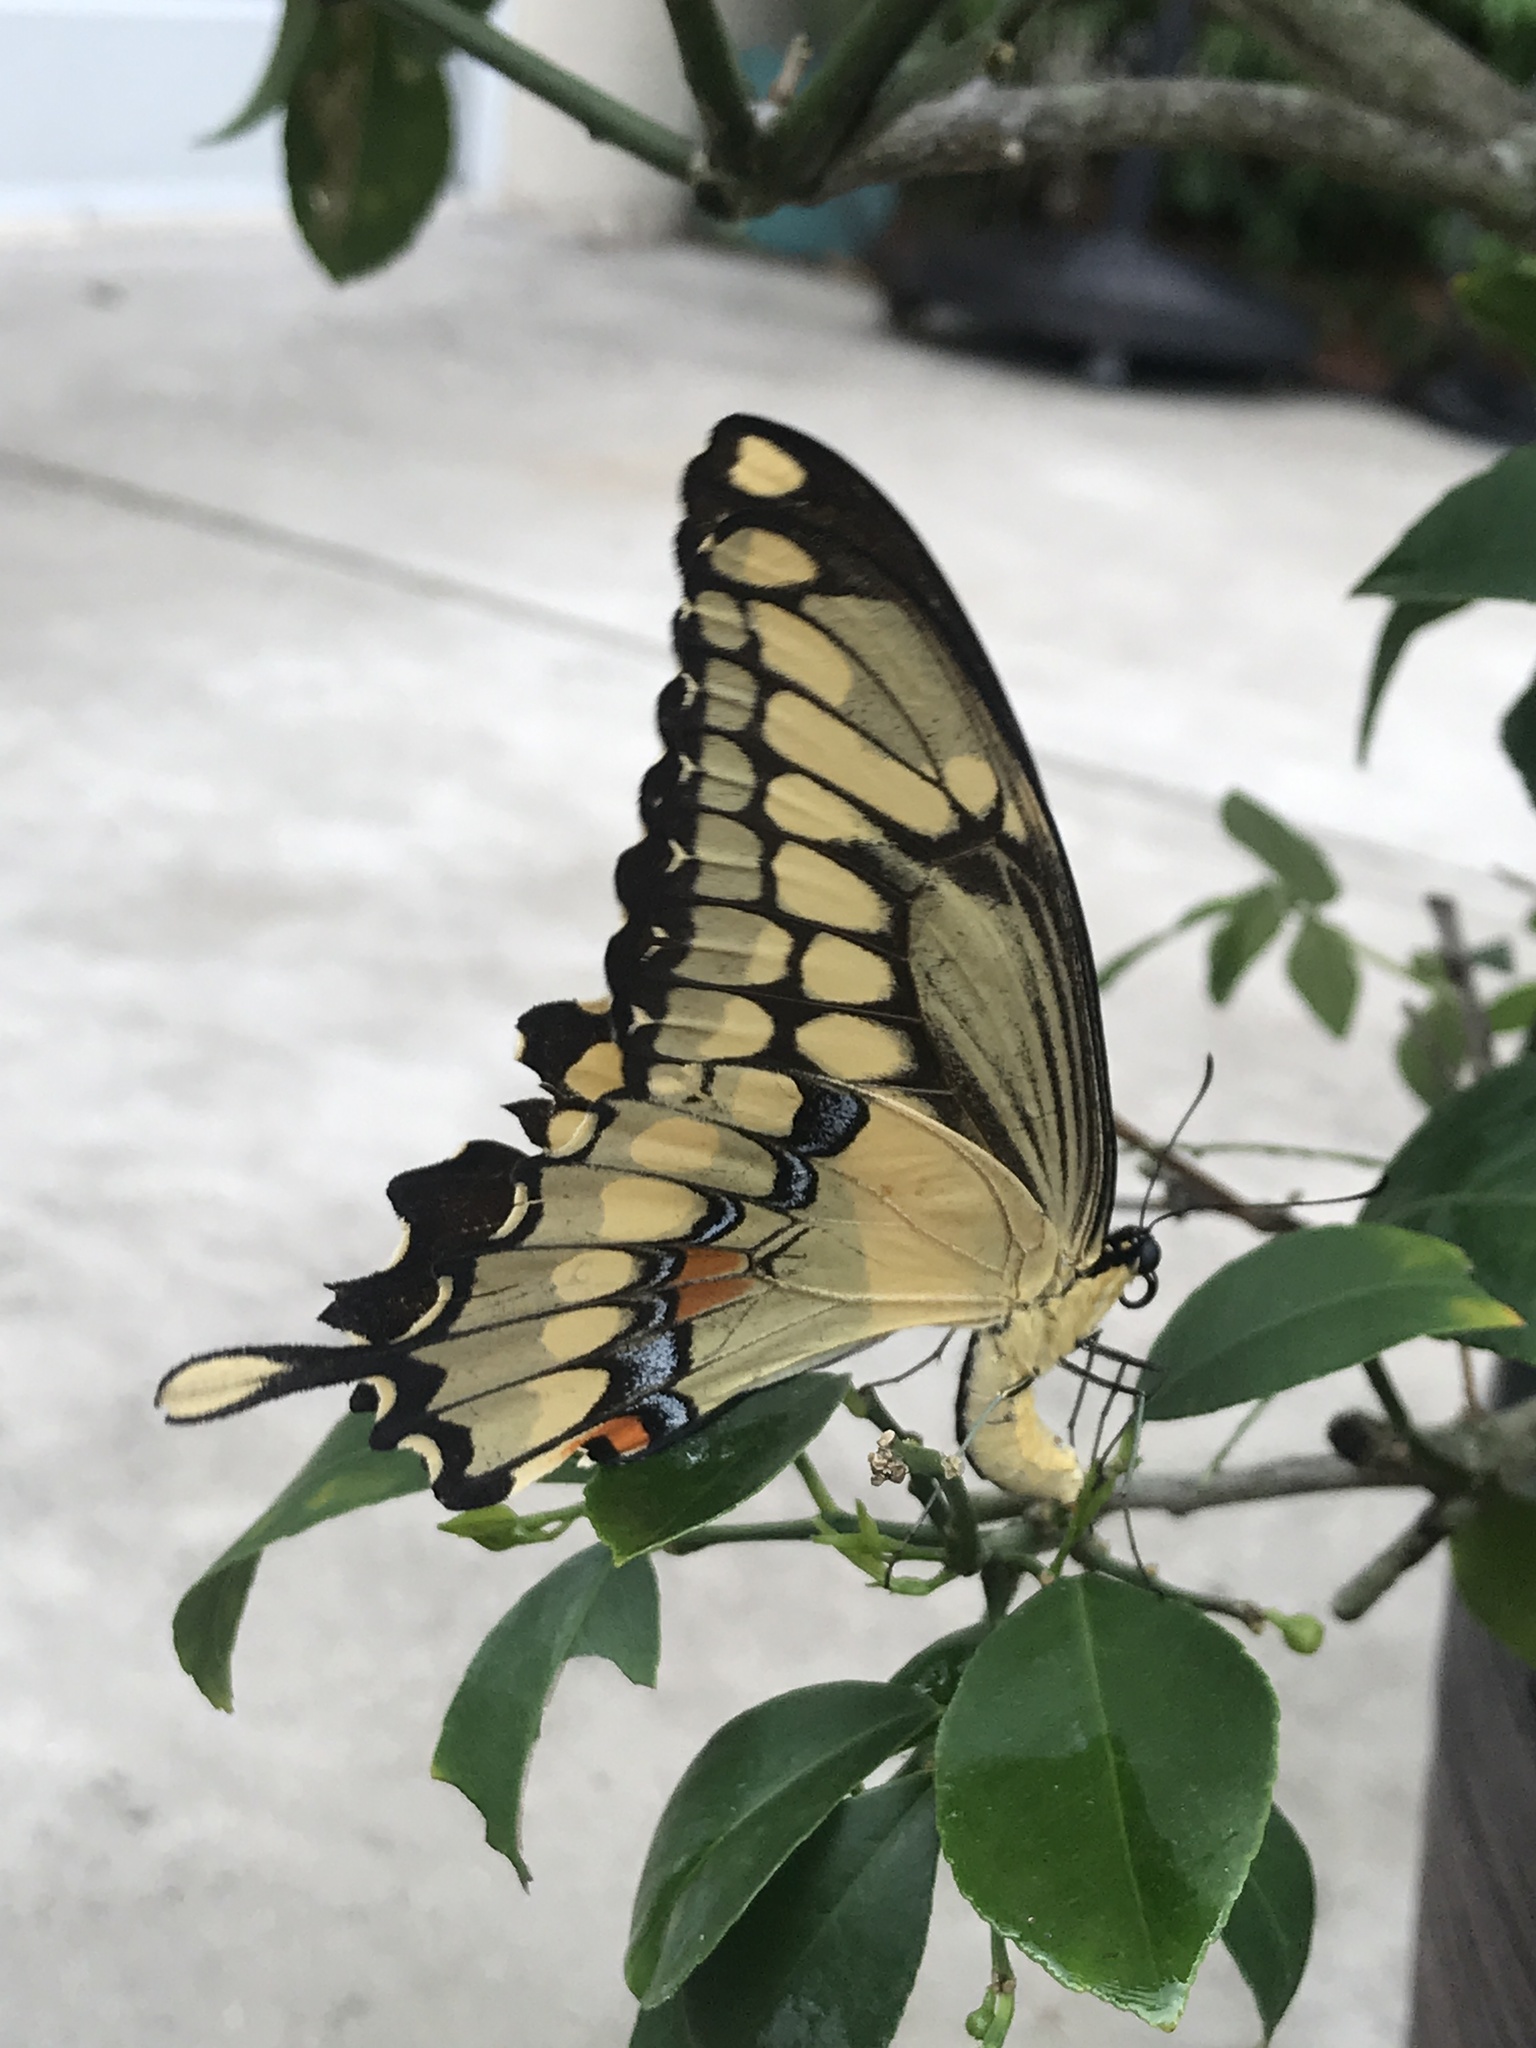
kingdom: Animalia
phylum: Arthropoda
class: Insecta
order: Lepidoptera
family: Papilionidae
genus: Papilio
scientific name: Papilio cresphontes
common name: Giant swallowtail
